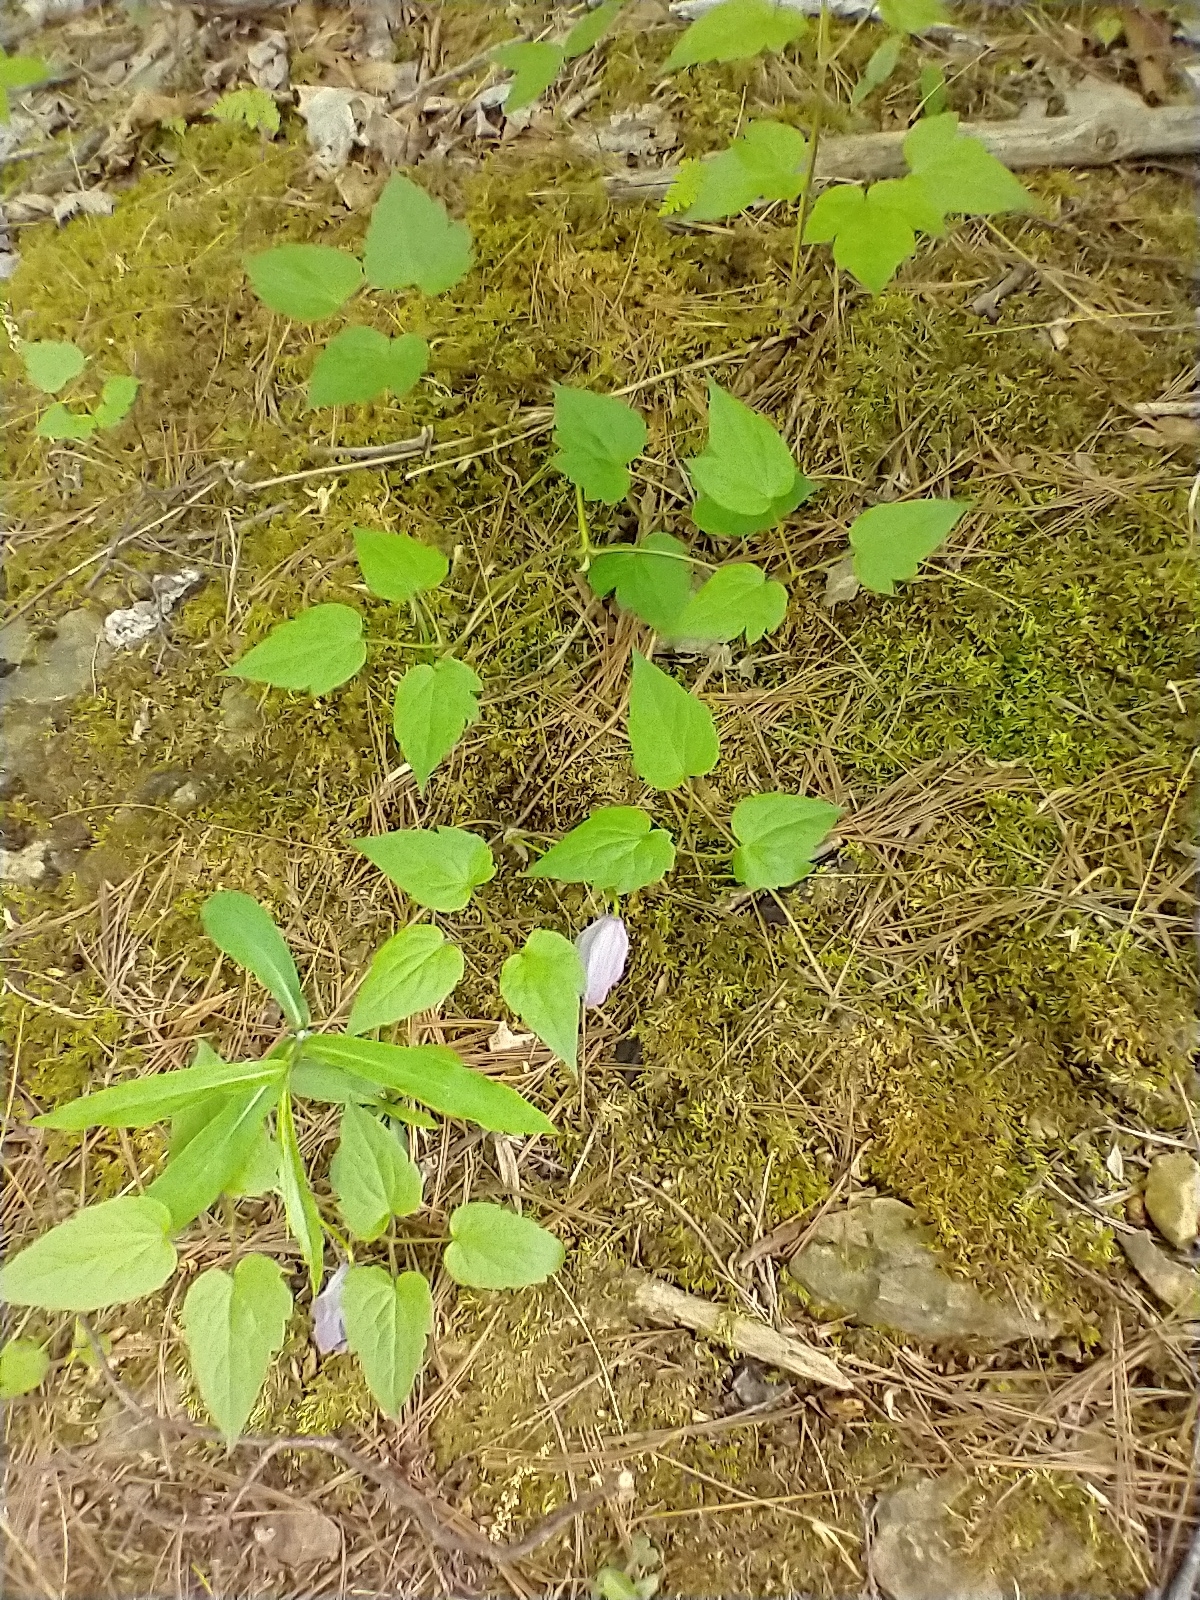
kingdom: Plantae
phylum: Tracheophyta
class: Magnoliopsida
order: Ranunculales
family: Ranunculaceae
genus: Clematis
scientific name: Clematis occidentalis
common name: Purple clematis
